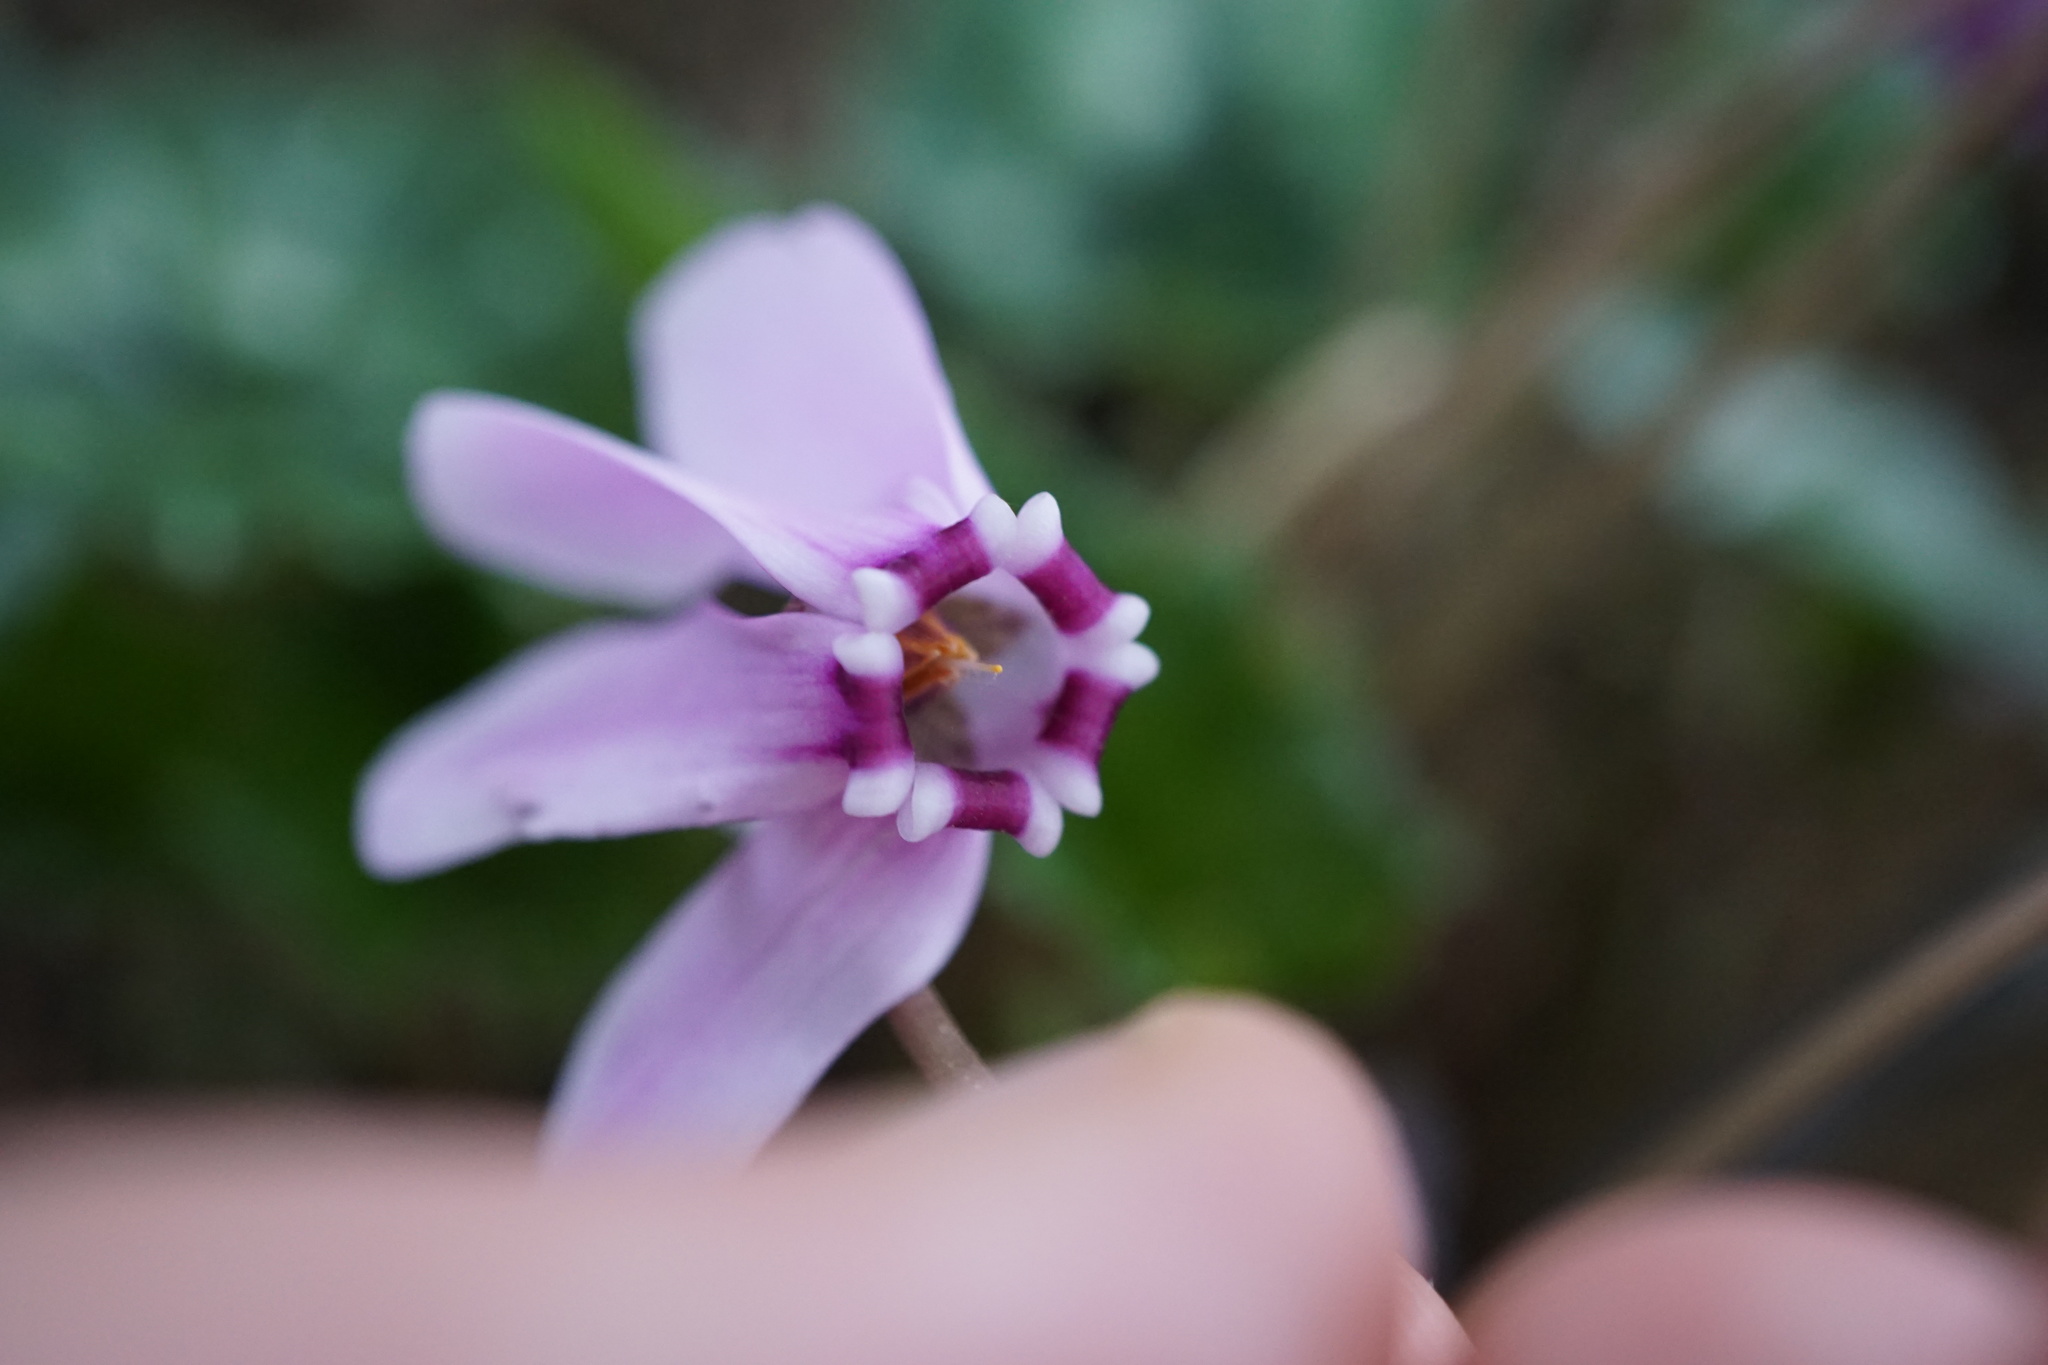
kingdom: Plantae
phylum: Tracheophyta
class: Magnoliopsida
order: Ericales
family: Primulaceae
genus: Cyclamen
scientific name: Cyclamen hederifolium
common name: Sowbread
